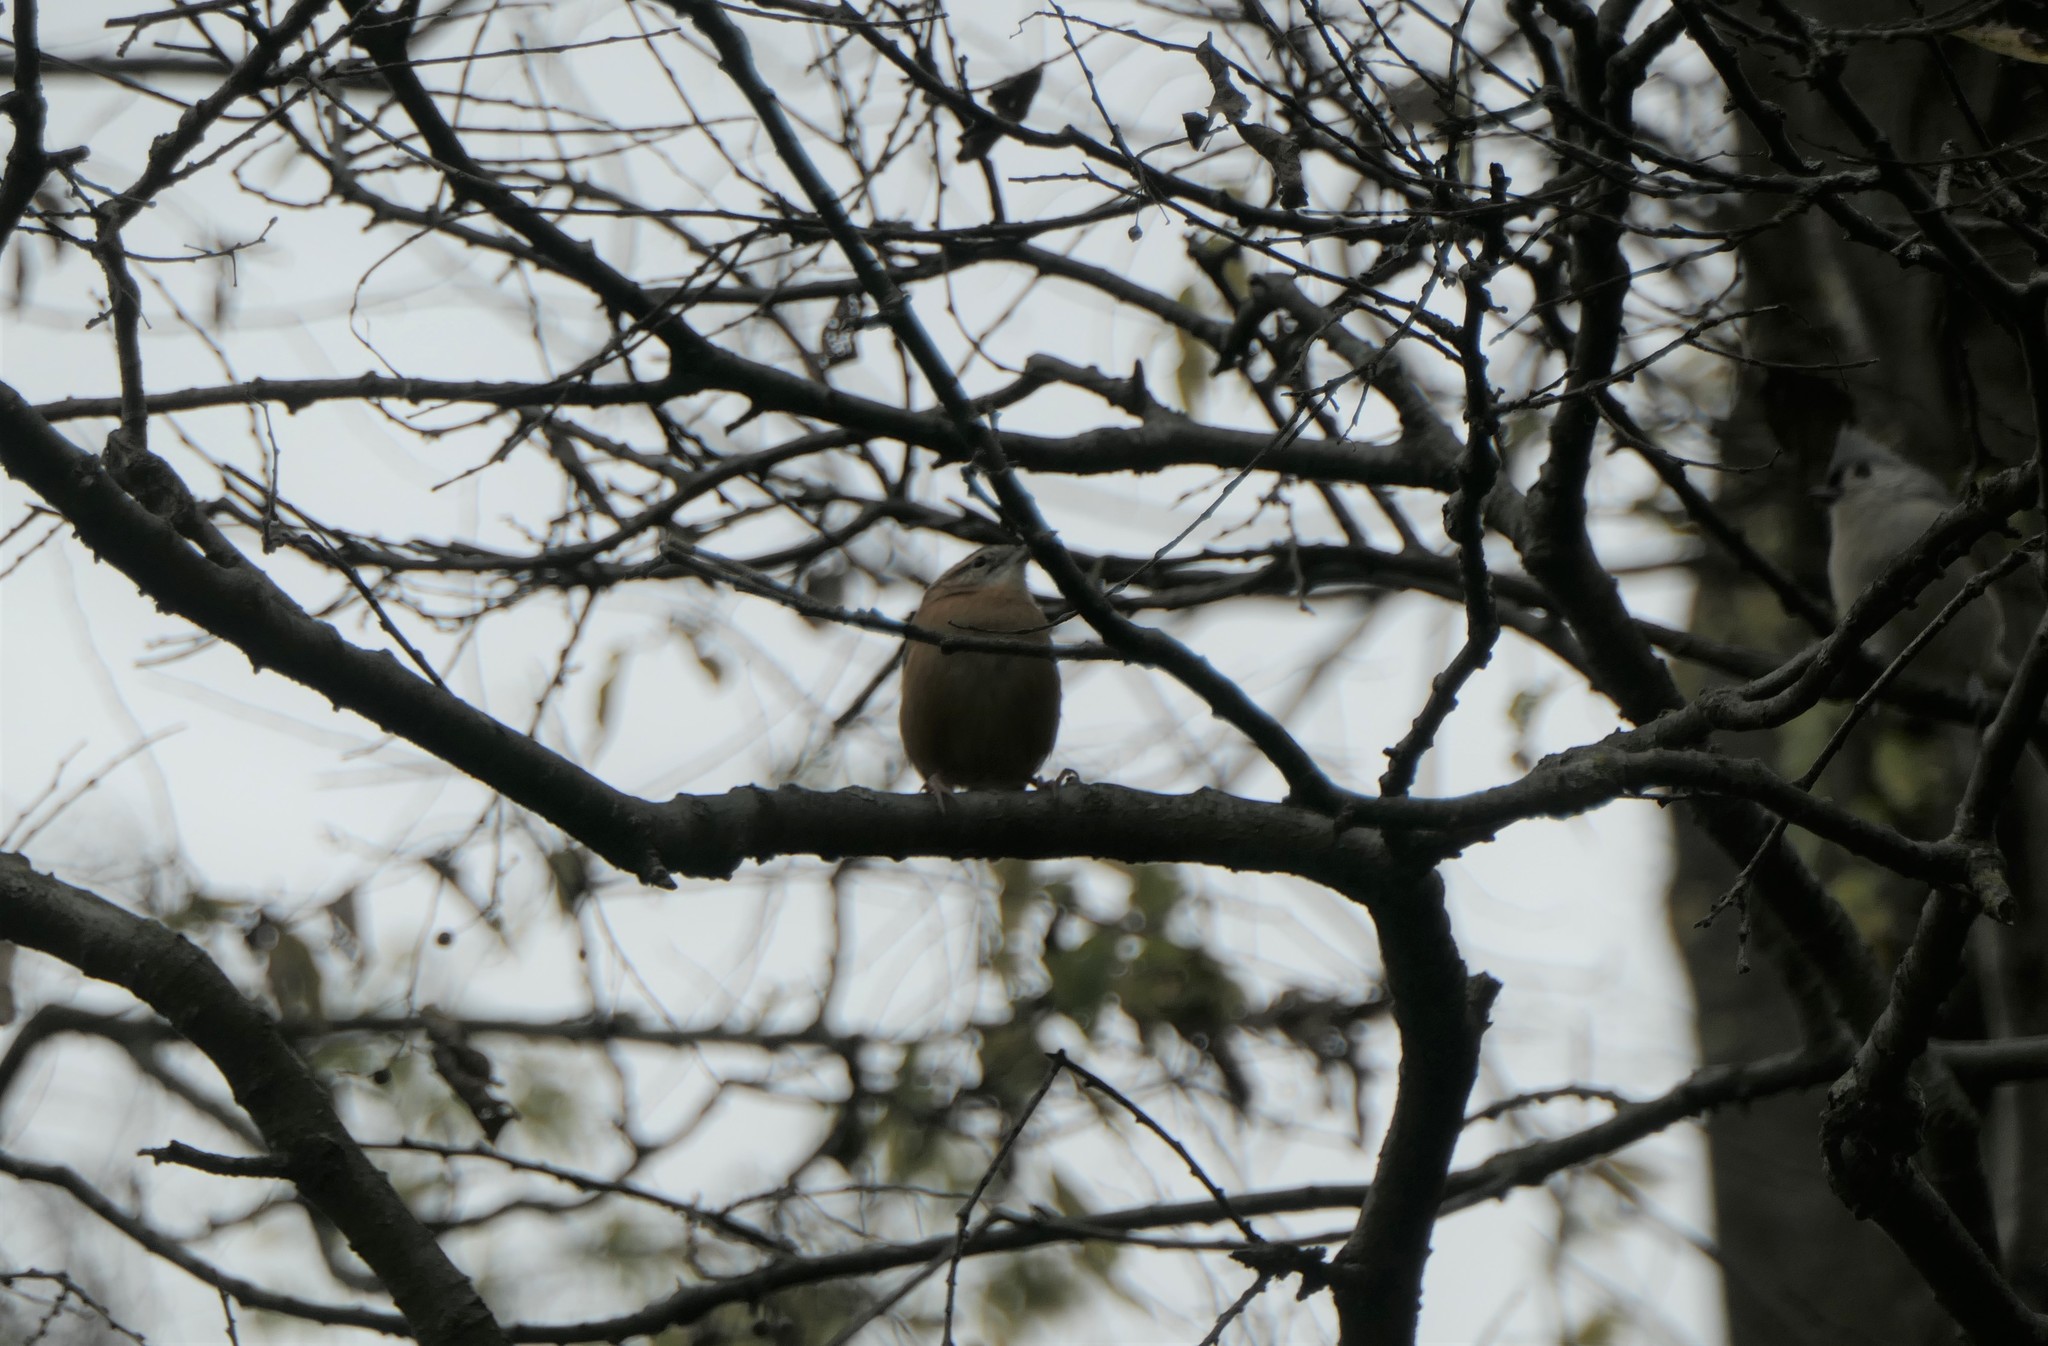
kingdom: Animalia
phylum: Chordata
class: Aves
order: Passeriformes
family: Troglodytidae
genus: Thryothorus
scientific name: Thryothorus ludovicianus
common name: Carolina wren
